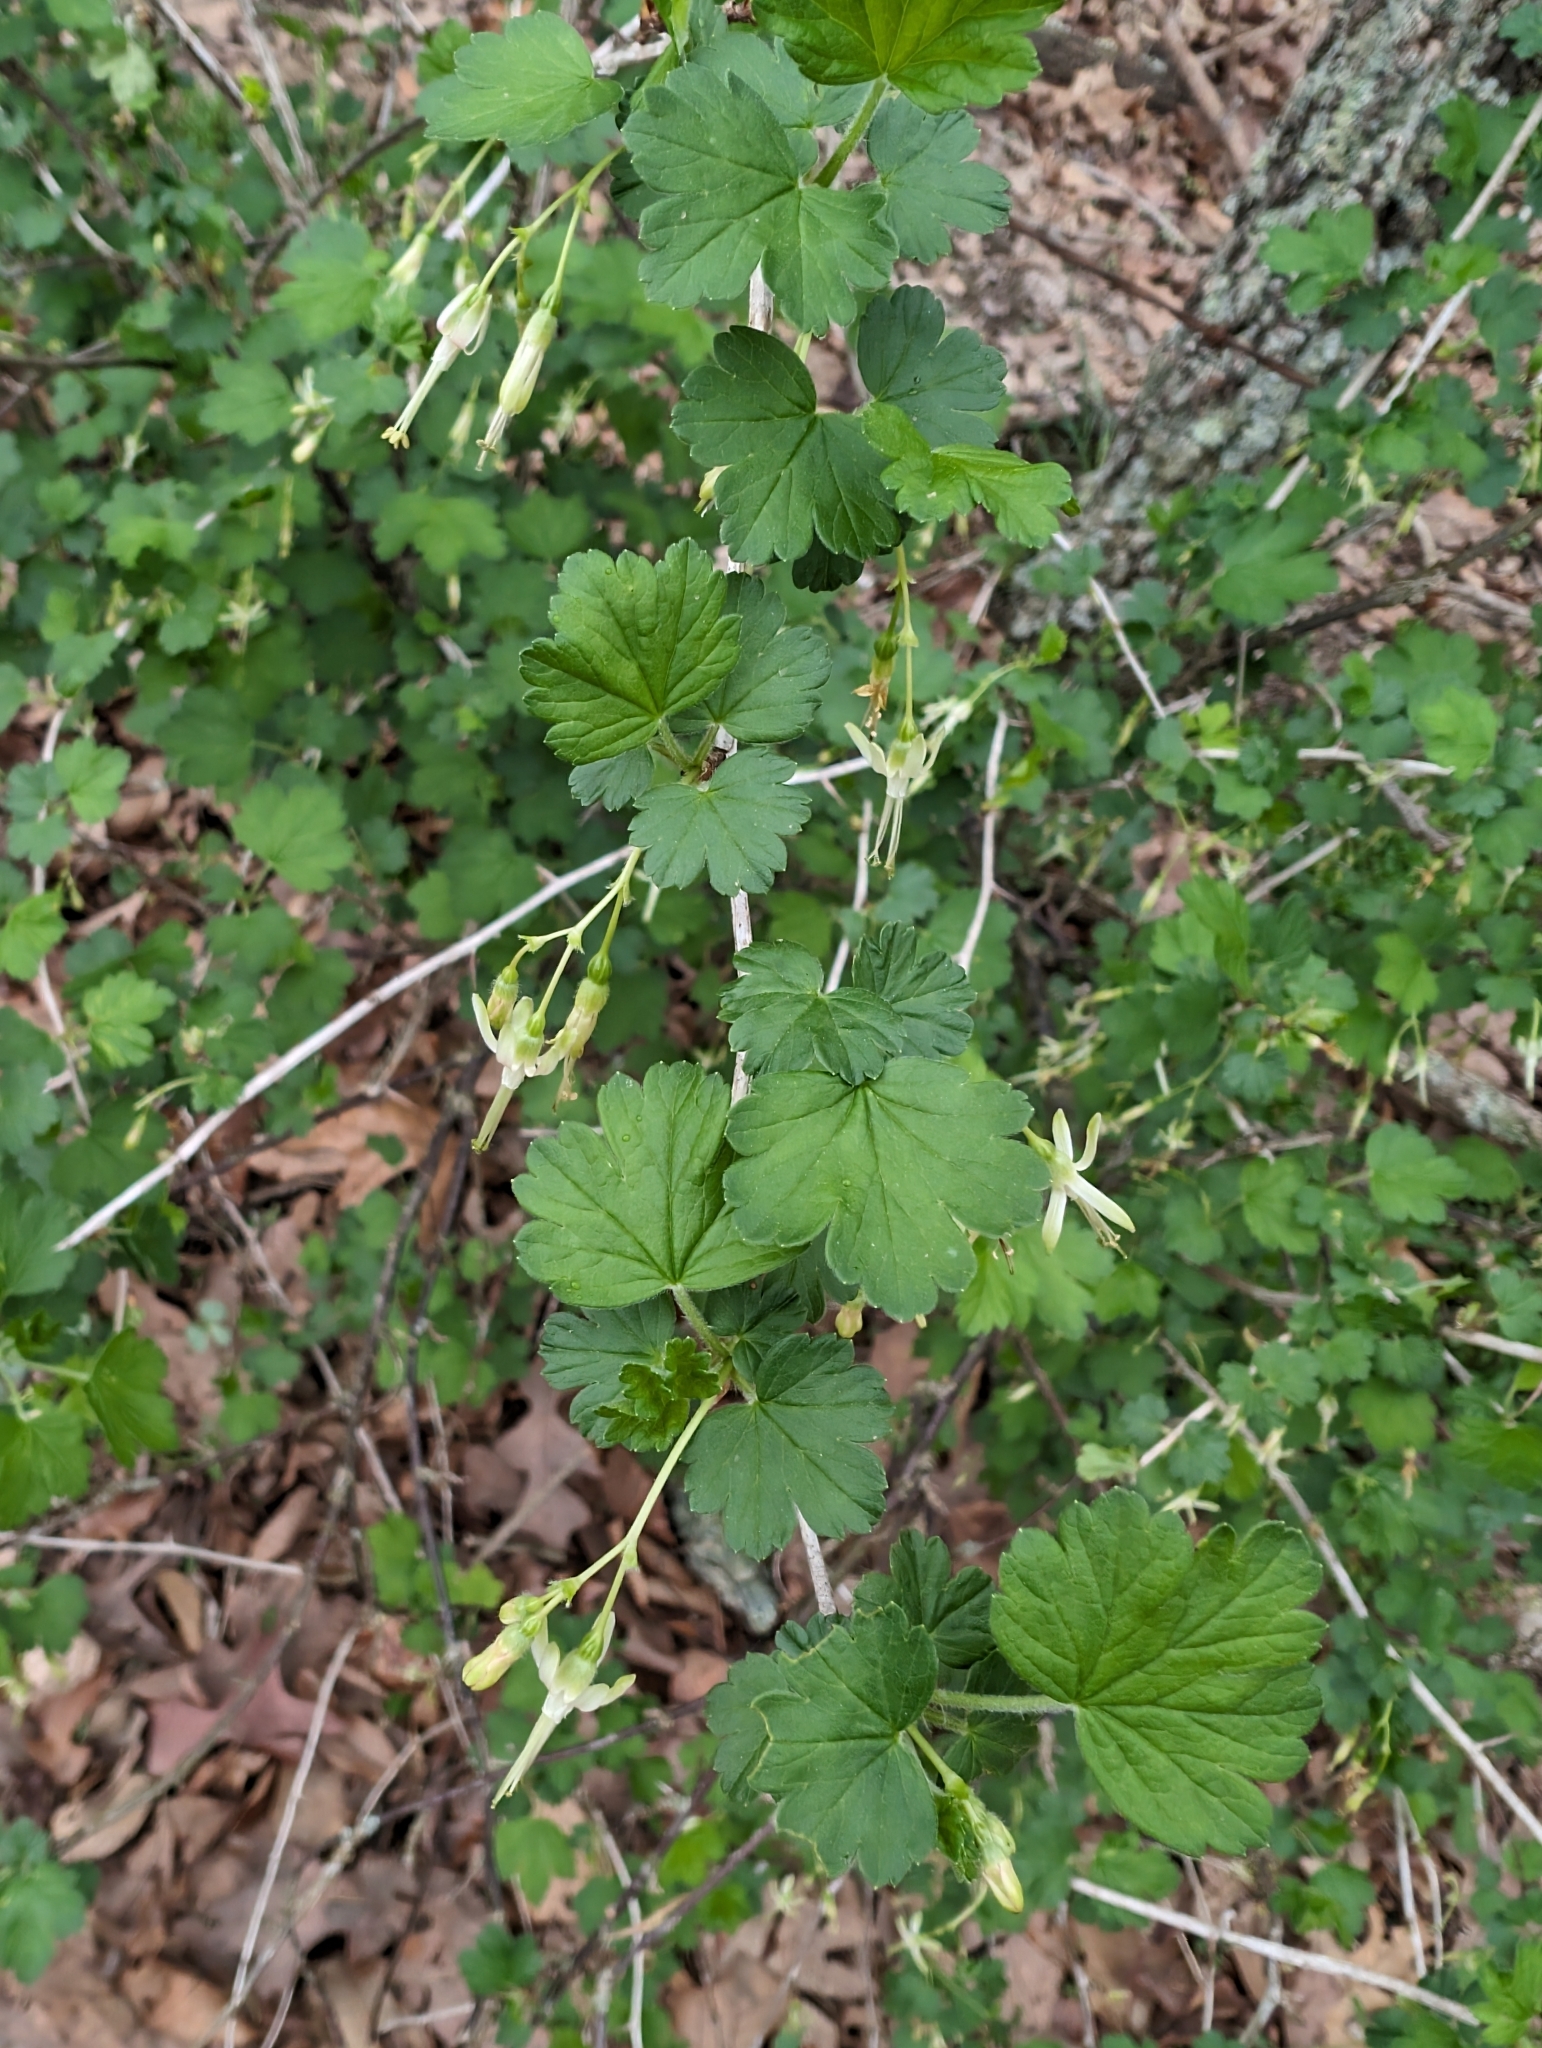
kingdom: Plantae
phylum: Tracheophyta
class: Magnoliopsida
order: Saxifragales
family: Grossulariaceae
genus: Ribes
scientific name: Ribes missouriense
